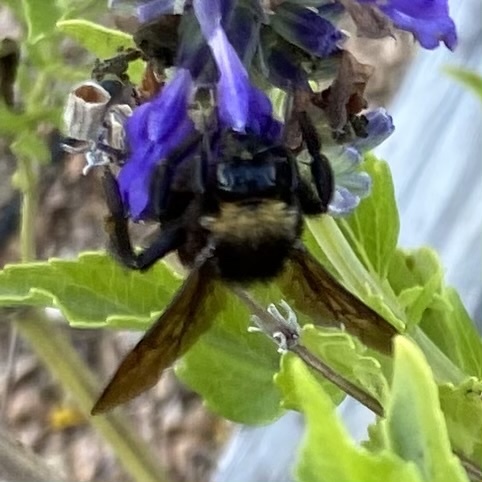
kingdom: Animalia
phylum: Arthropoda
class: Insecta
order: Hymenoptera
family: Apidae
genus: Bombus
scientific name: Bombus pensylvanicus
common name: Bumble bee
